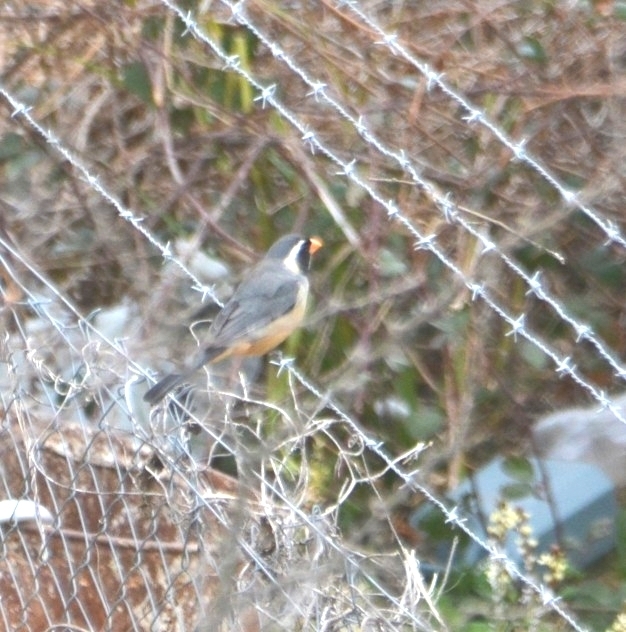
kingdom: Animalia
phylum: Chordata
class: Aves
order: Passeriformes
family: Thraupidae
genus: Saltator
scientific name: Saltator aurantiirostris
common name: Golden-billed saltator
